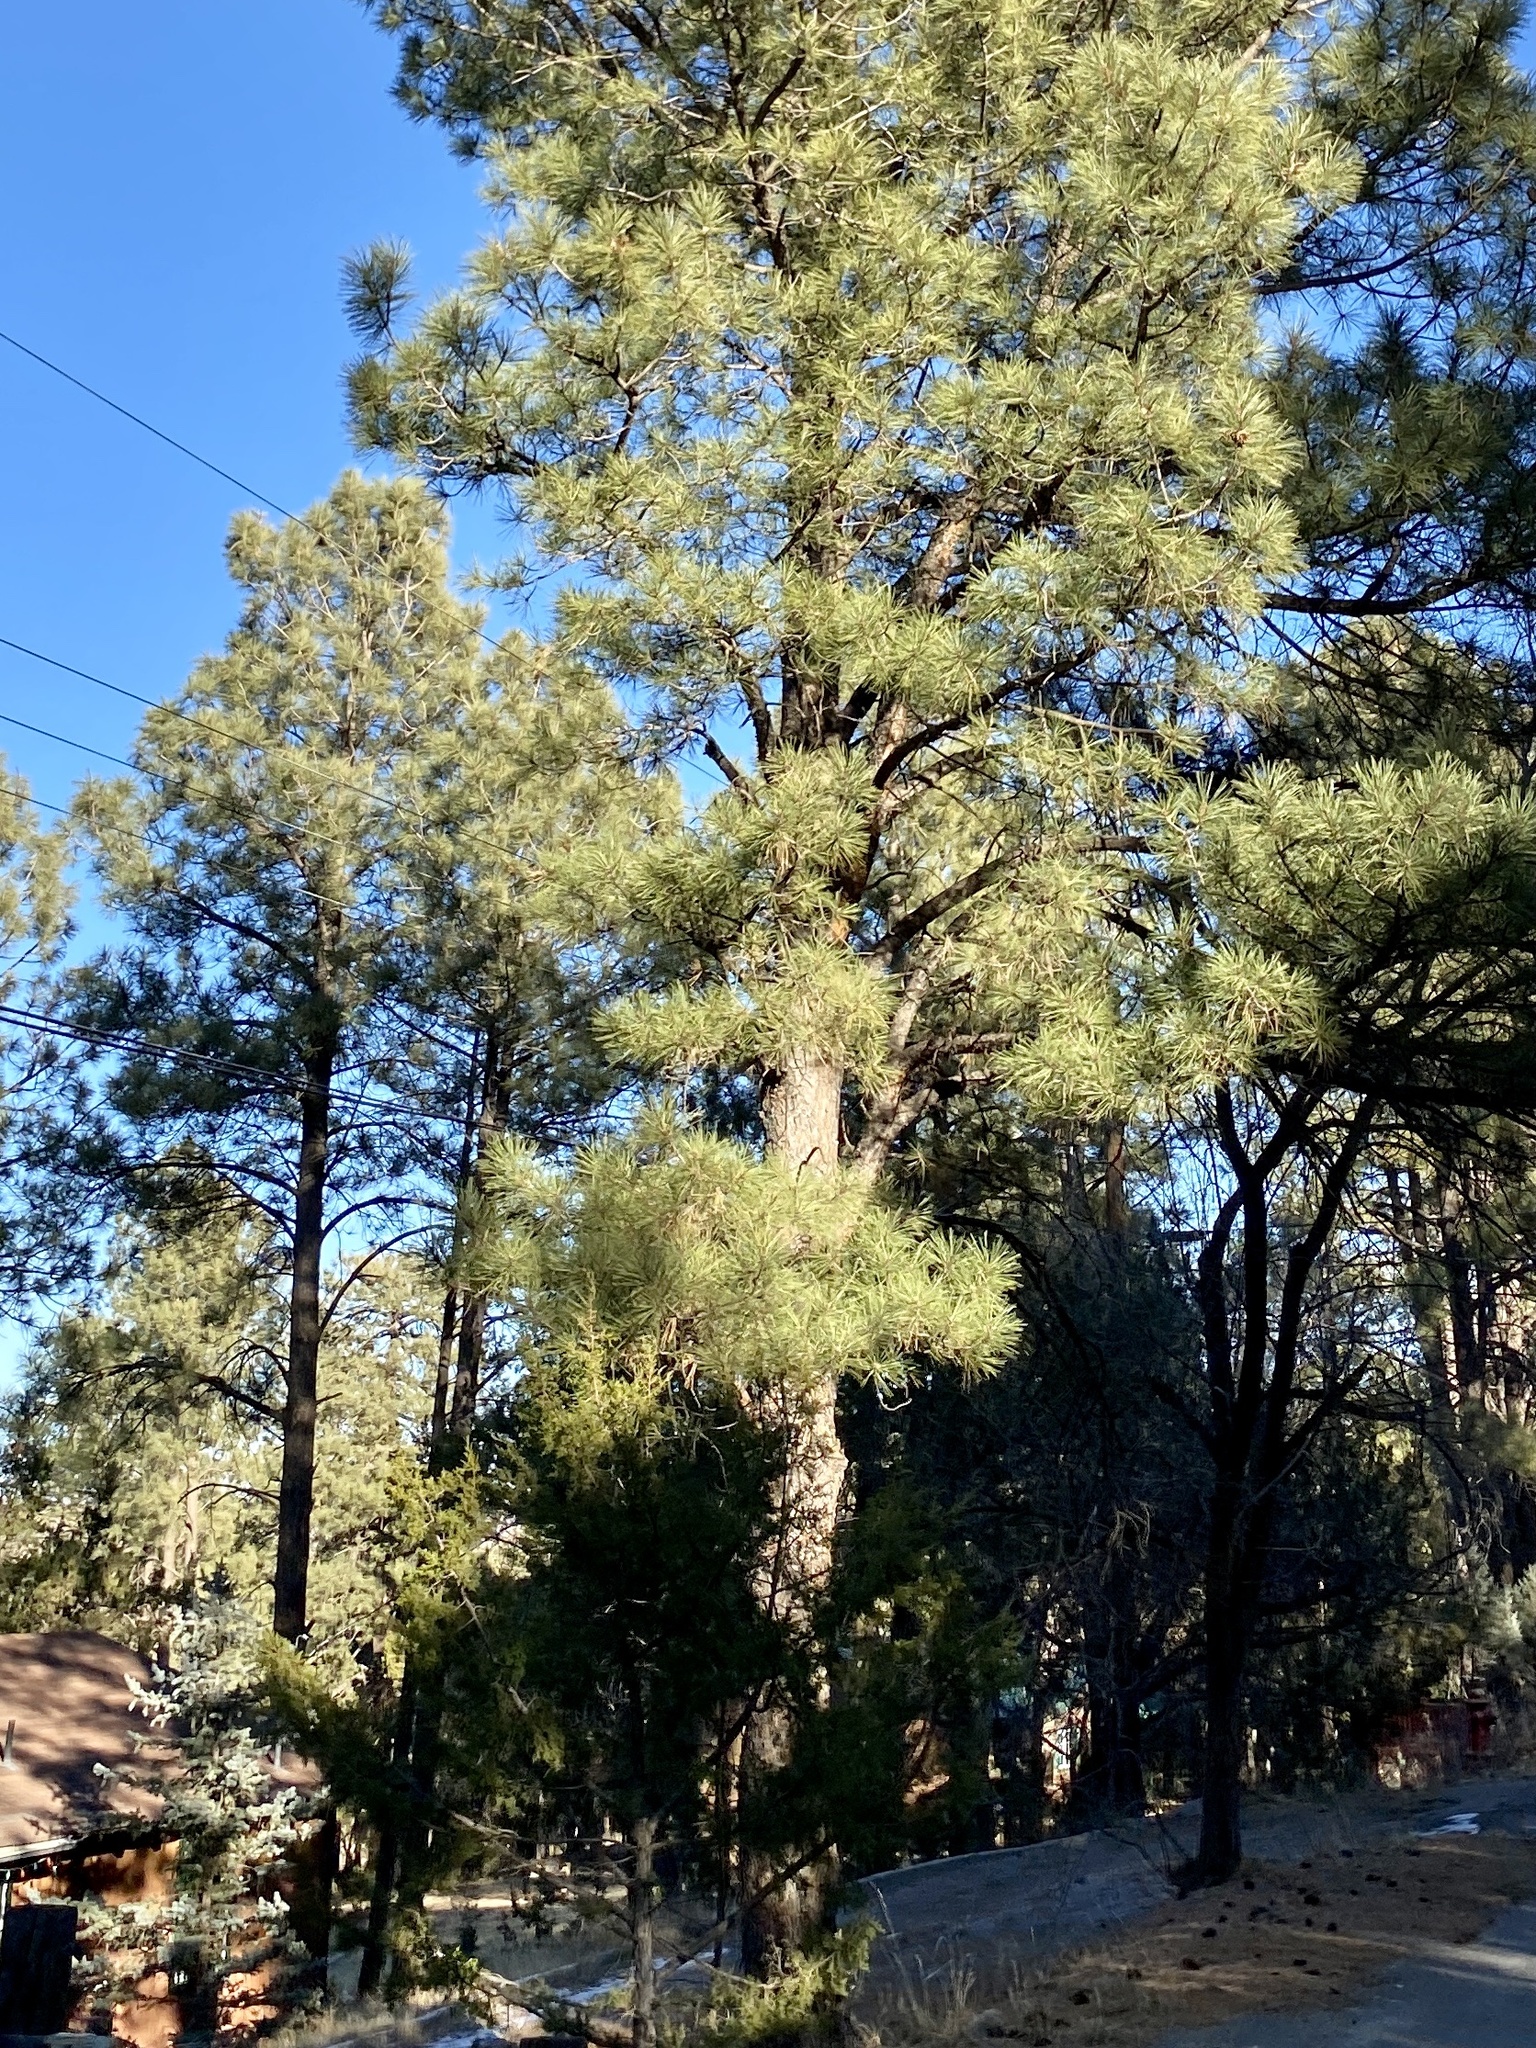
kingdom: Plantae
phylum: Tracheophyta
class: Pinopsida
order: Pinales
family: Pinaceae
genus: Pinus
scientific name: Pinus ponderosa
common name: Western yellow-pine
